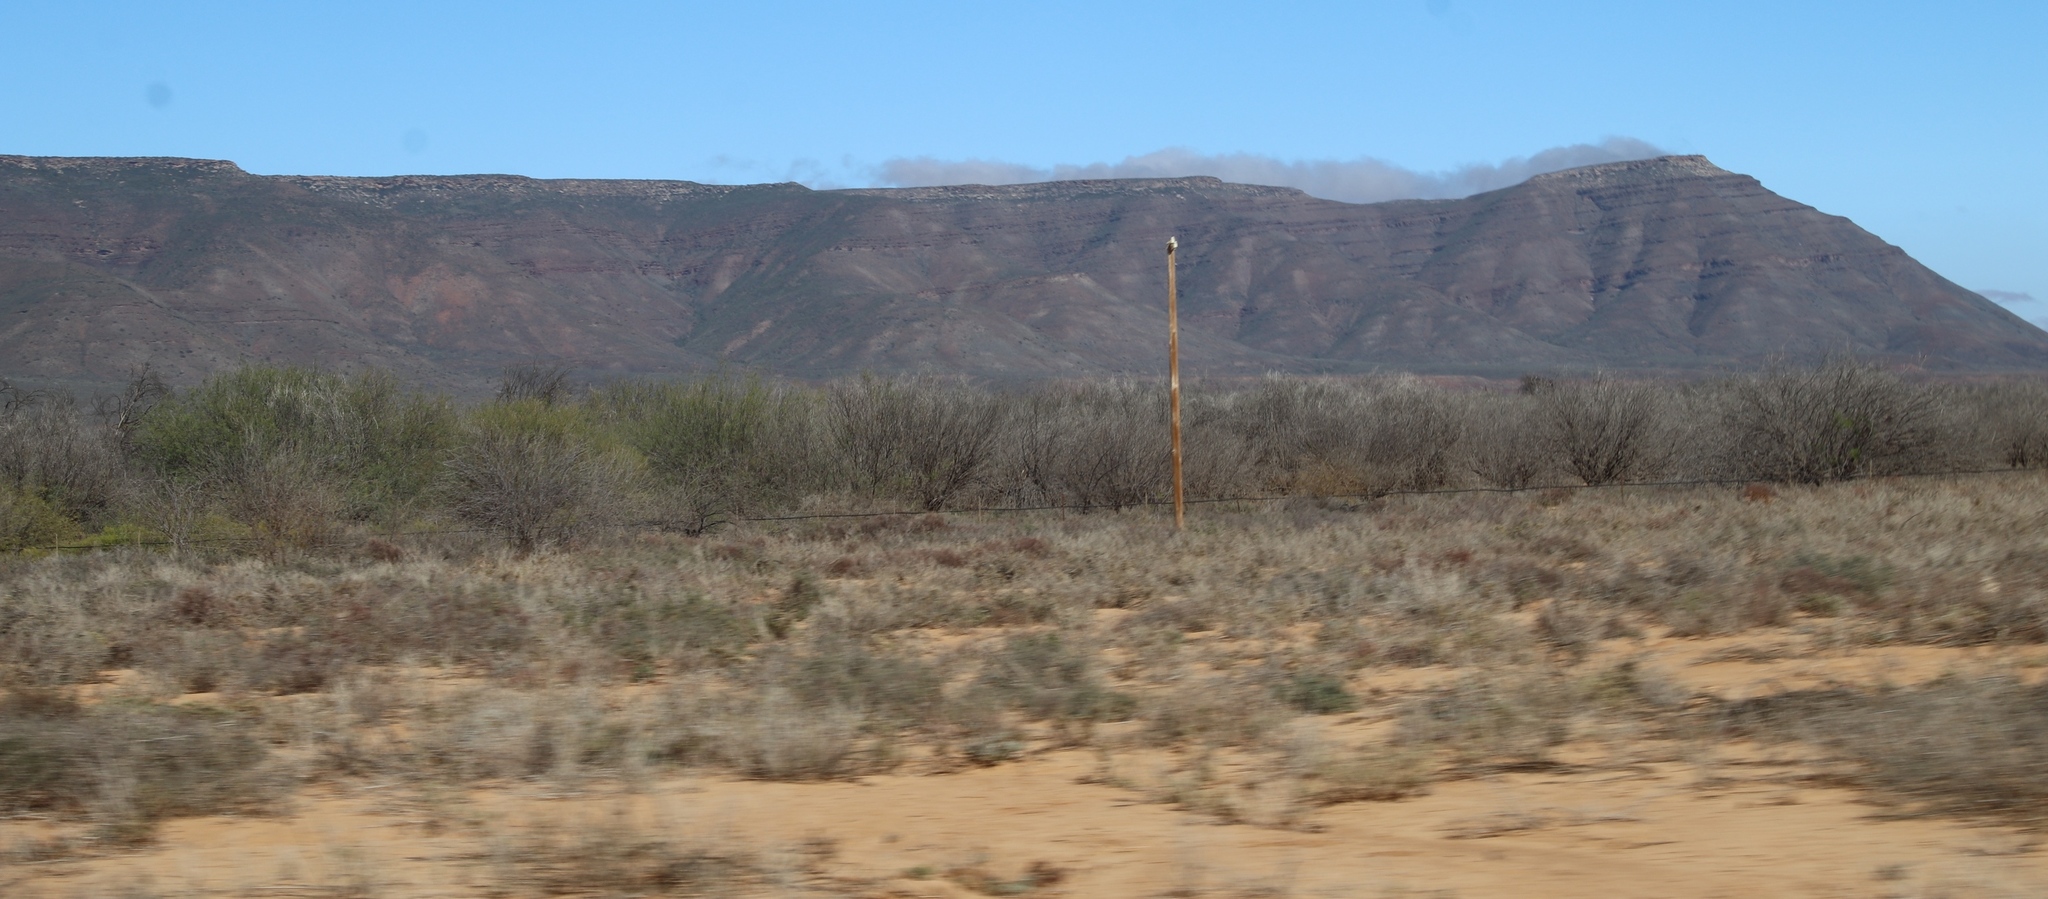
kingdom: Plantae
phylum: Tracheophyta
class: Magnoliopsida
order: Fabales
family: Fabaceae
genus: Prosopis
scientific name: Prosopis pubescens
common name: Screw-bean
